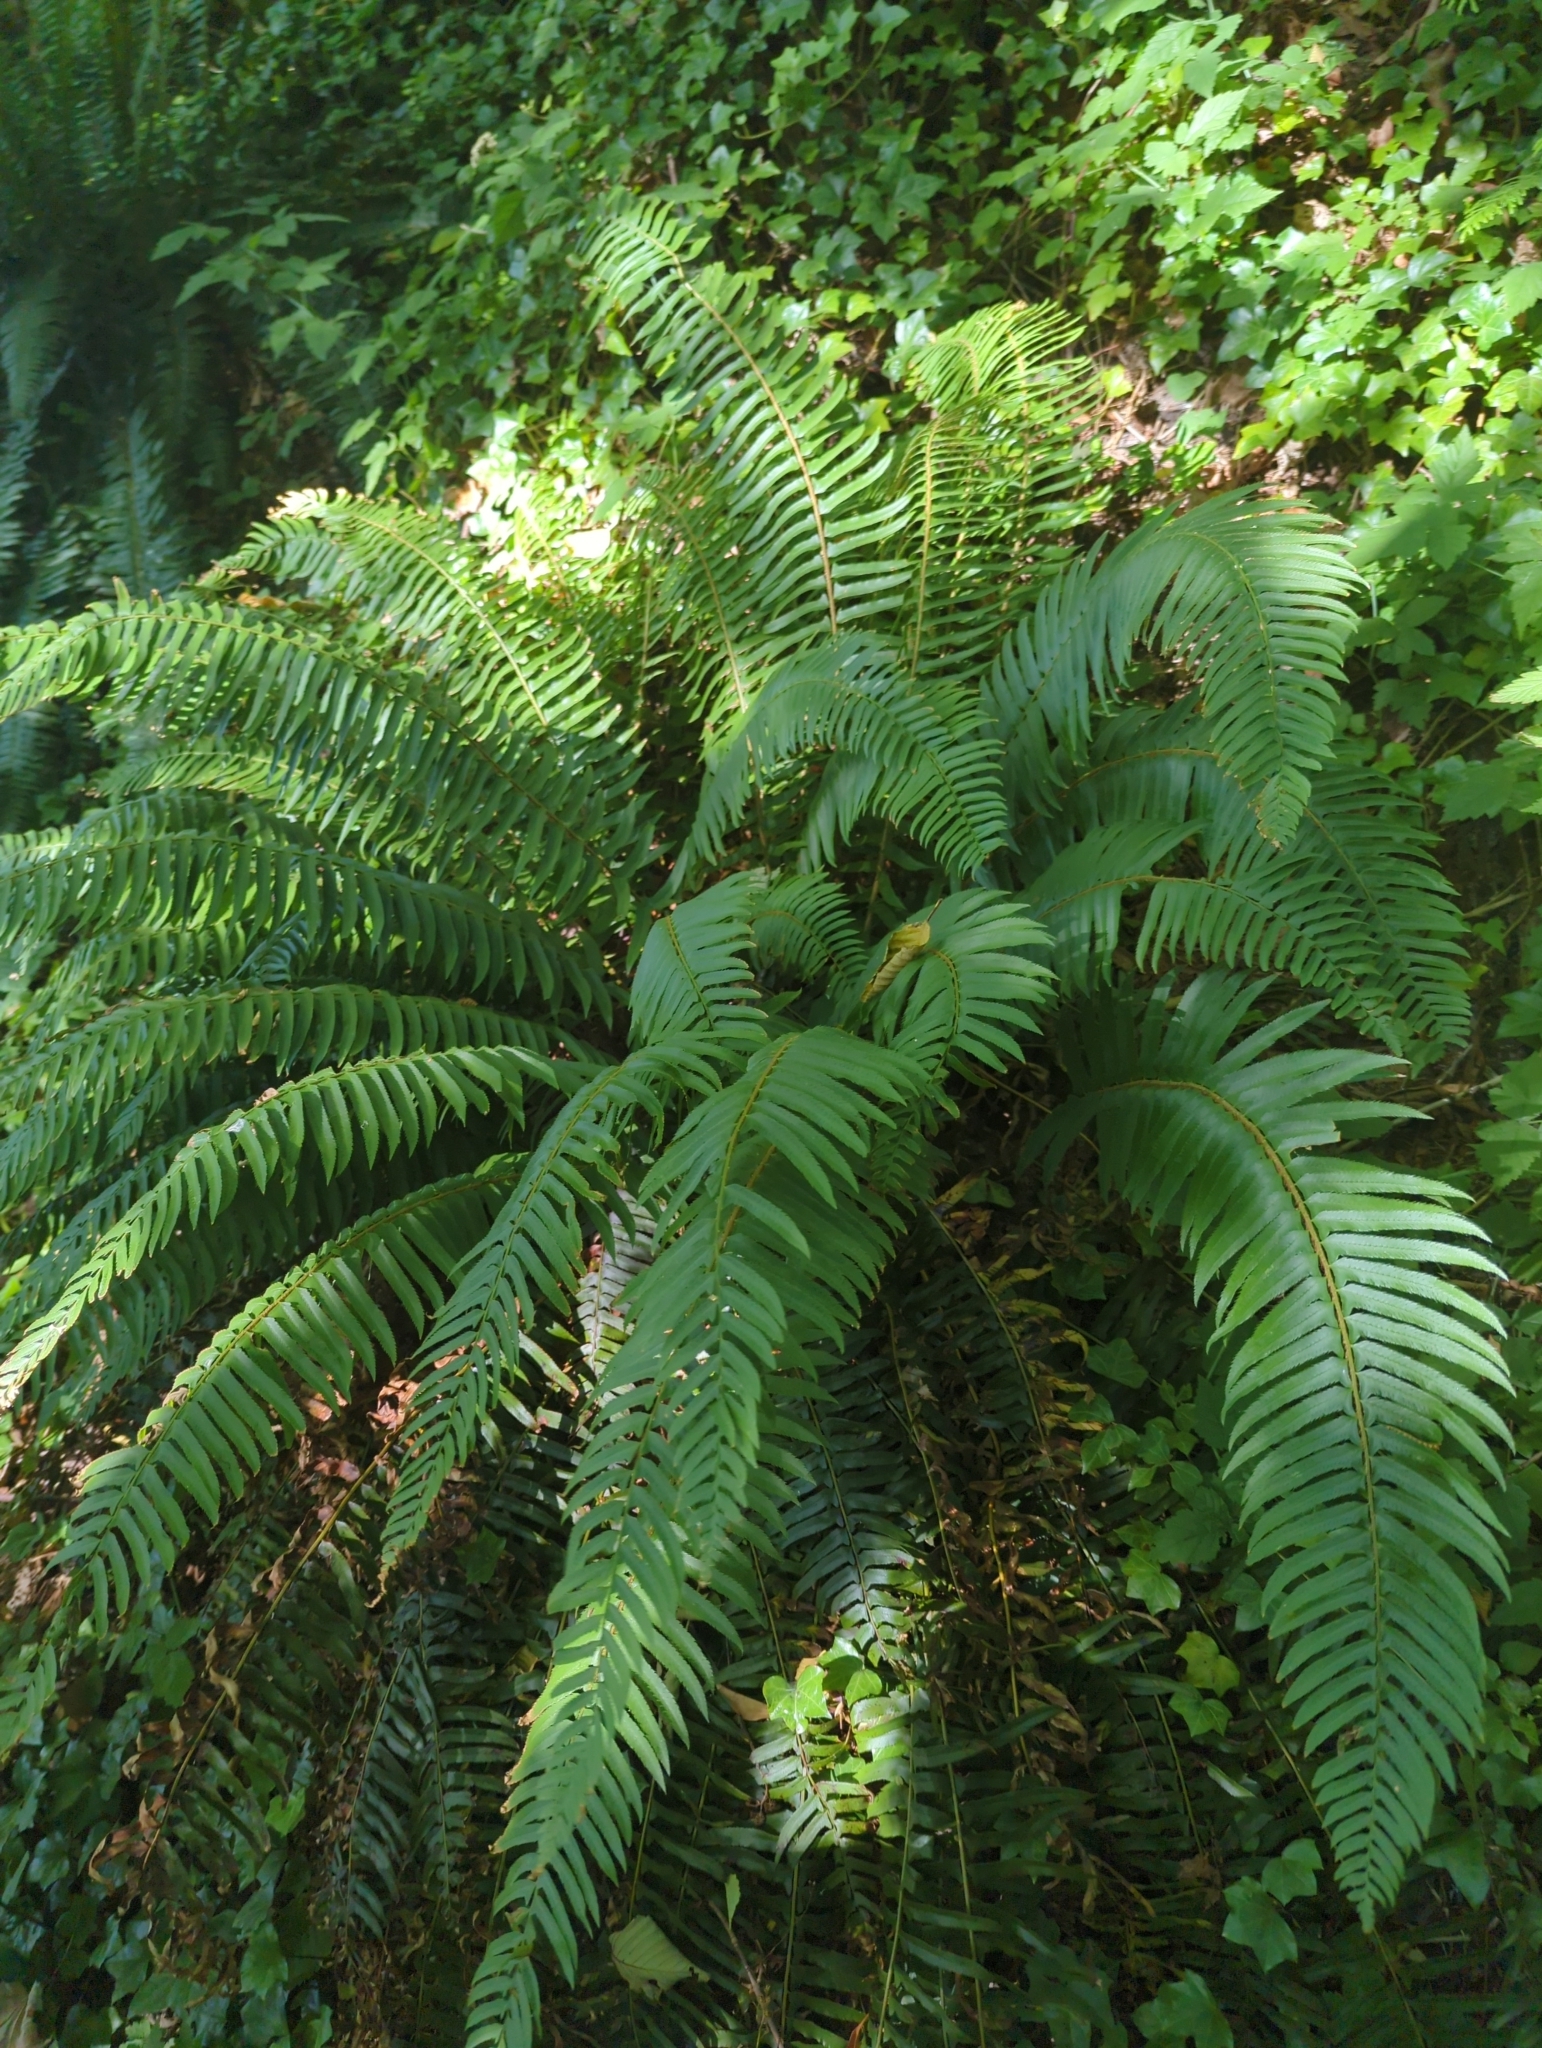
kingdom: Plantae
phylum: Tracheophyta
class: Polypodiopsida
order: Polypodiales
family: Dryopteridaceae
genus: Polystichum
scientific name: Polystichum munitum
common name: Western sword-fern
